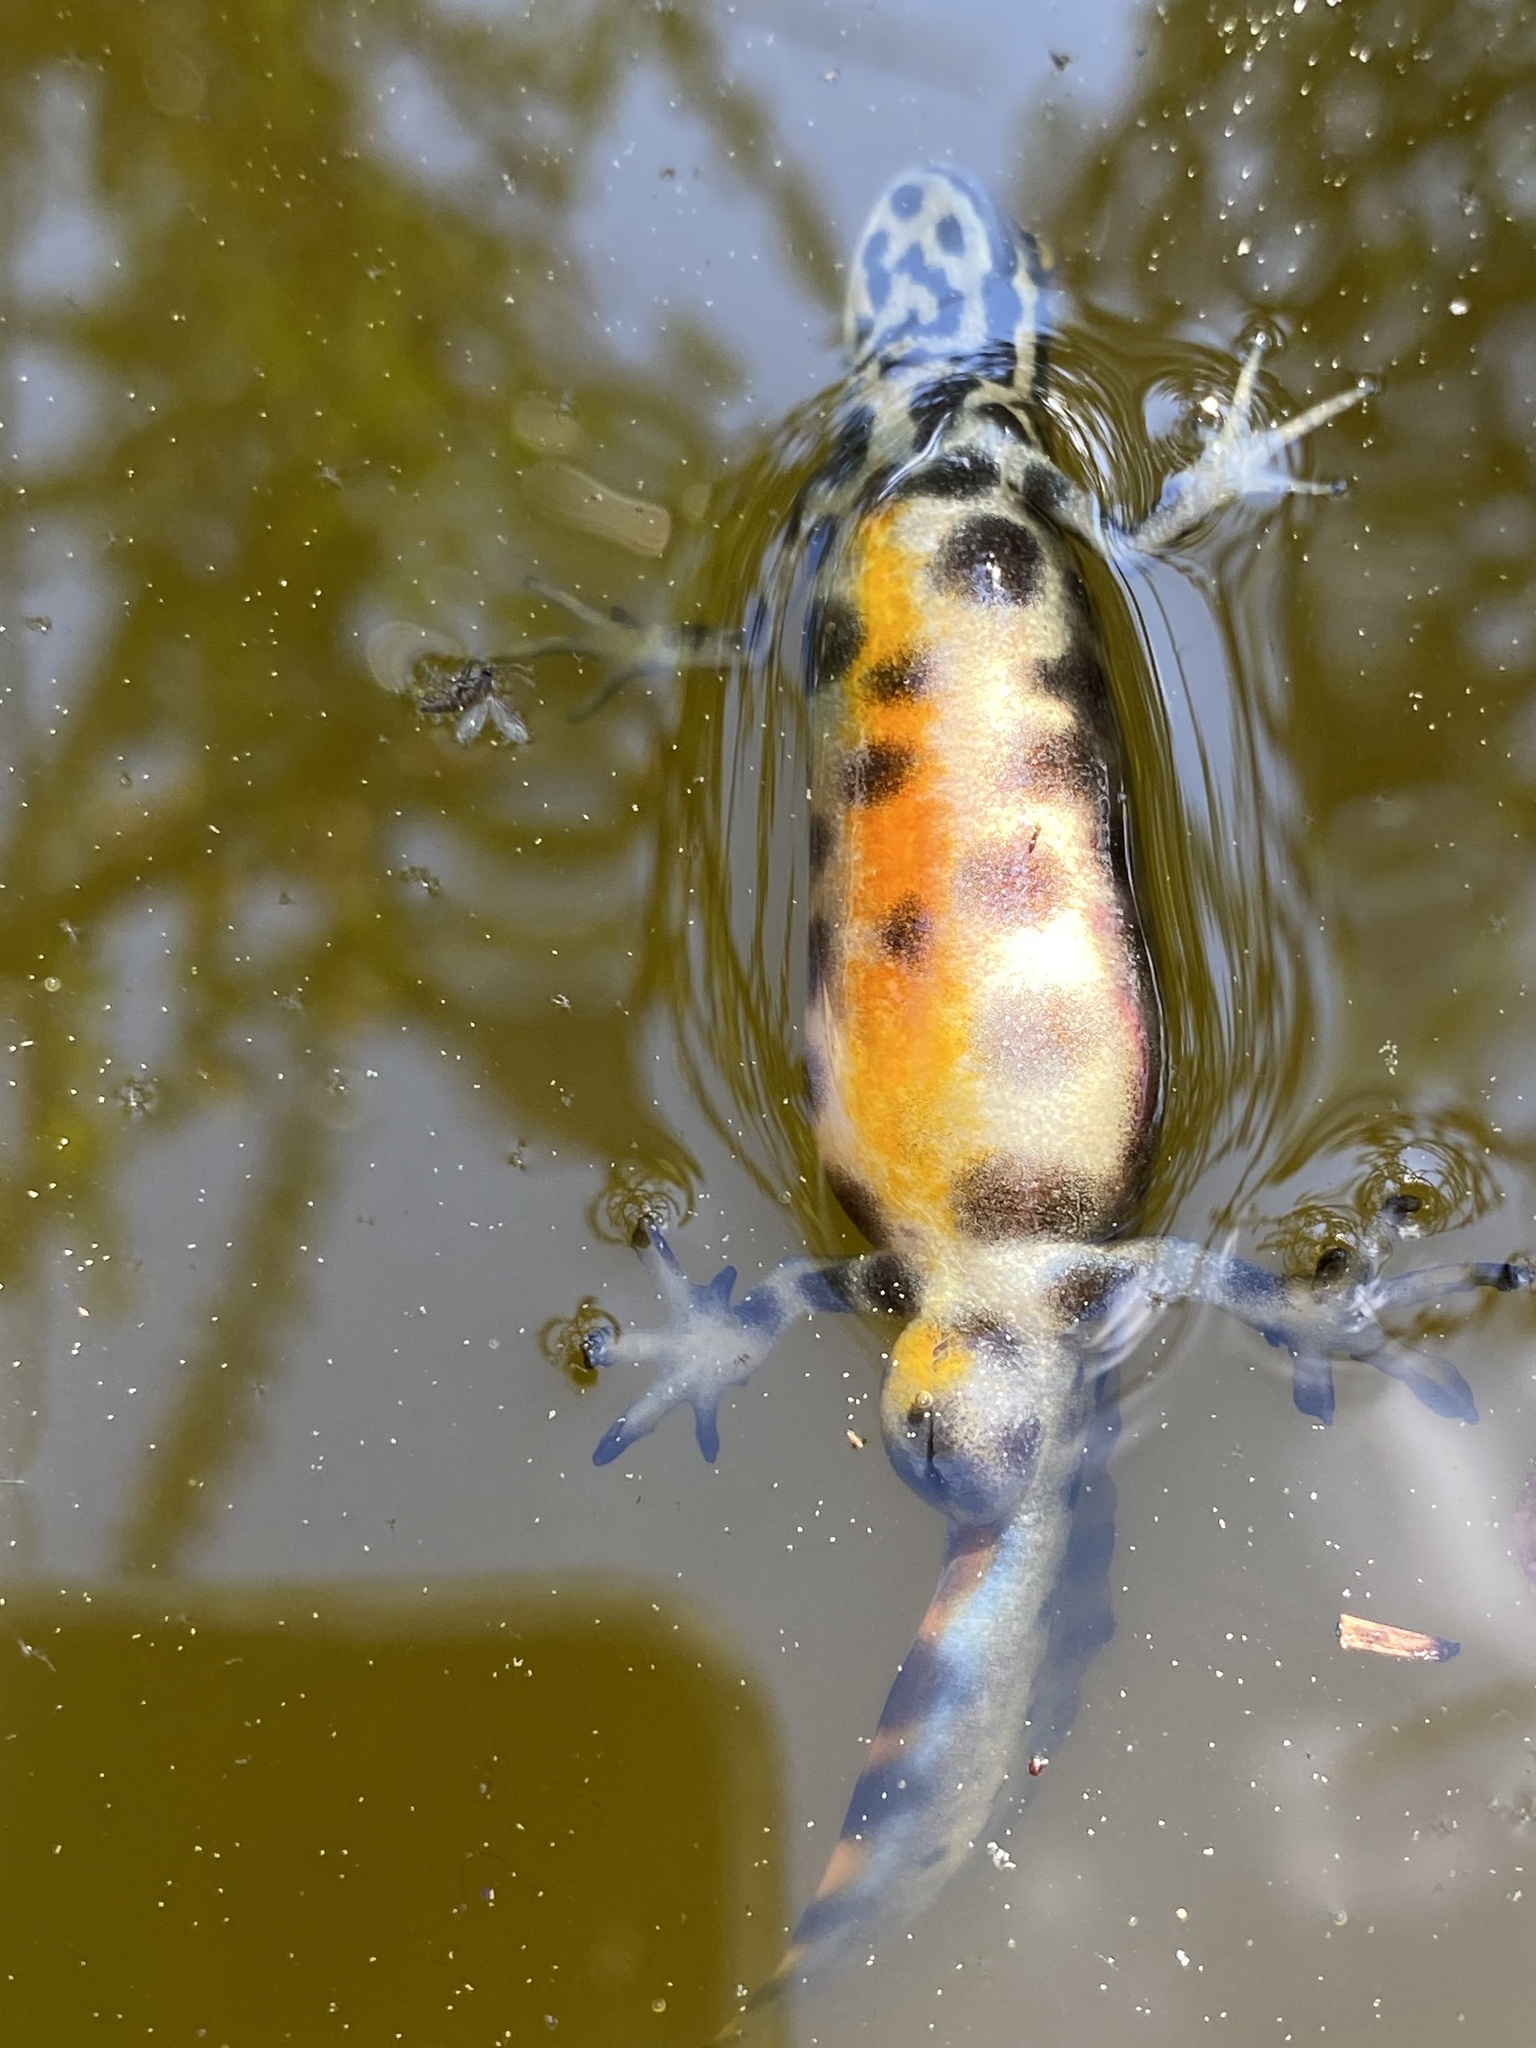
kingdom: Animalia
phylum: Chordata
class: Amphibia
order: Caudata
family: Salamandridae
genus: Lissotriton
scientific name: Lissotriton vulgaris
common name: Smooth newt
